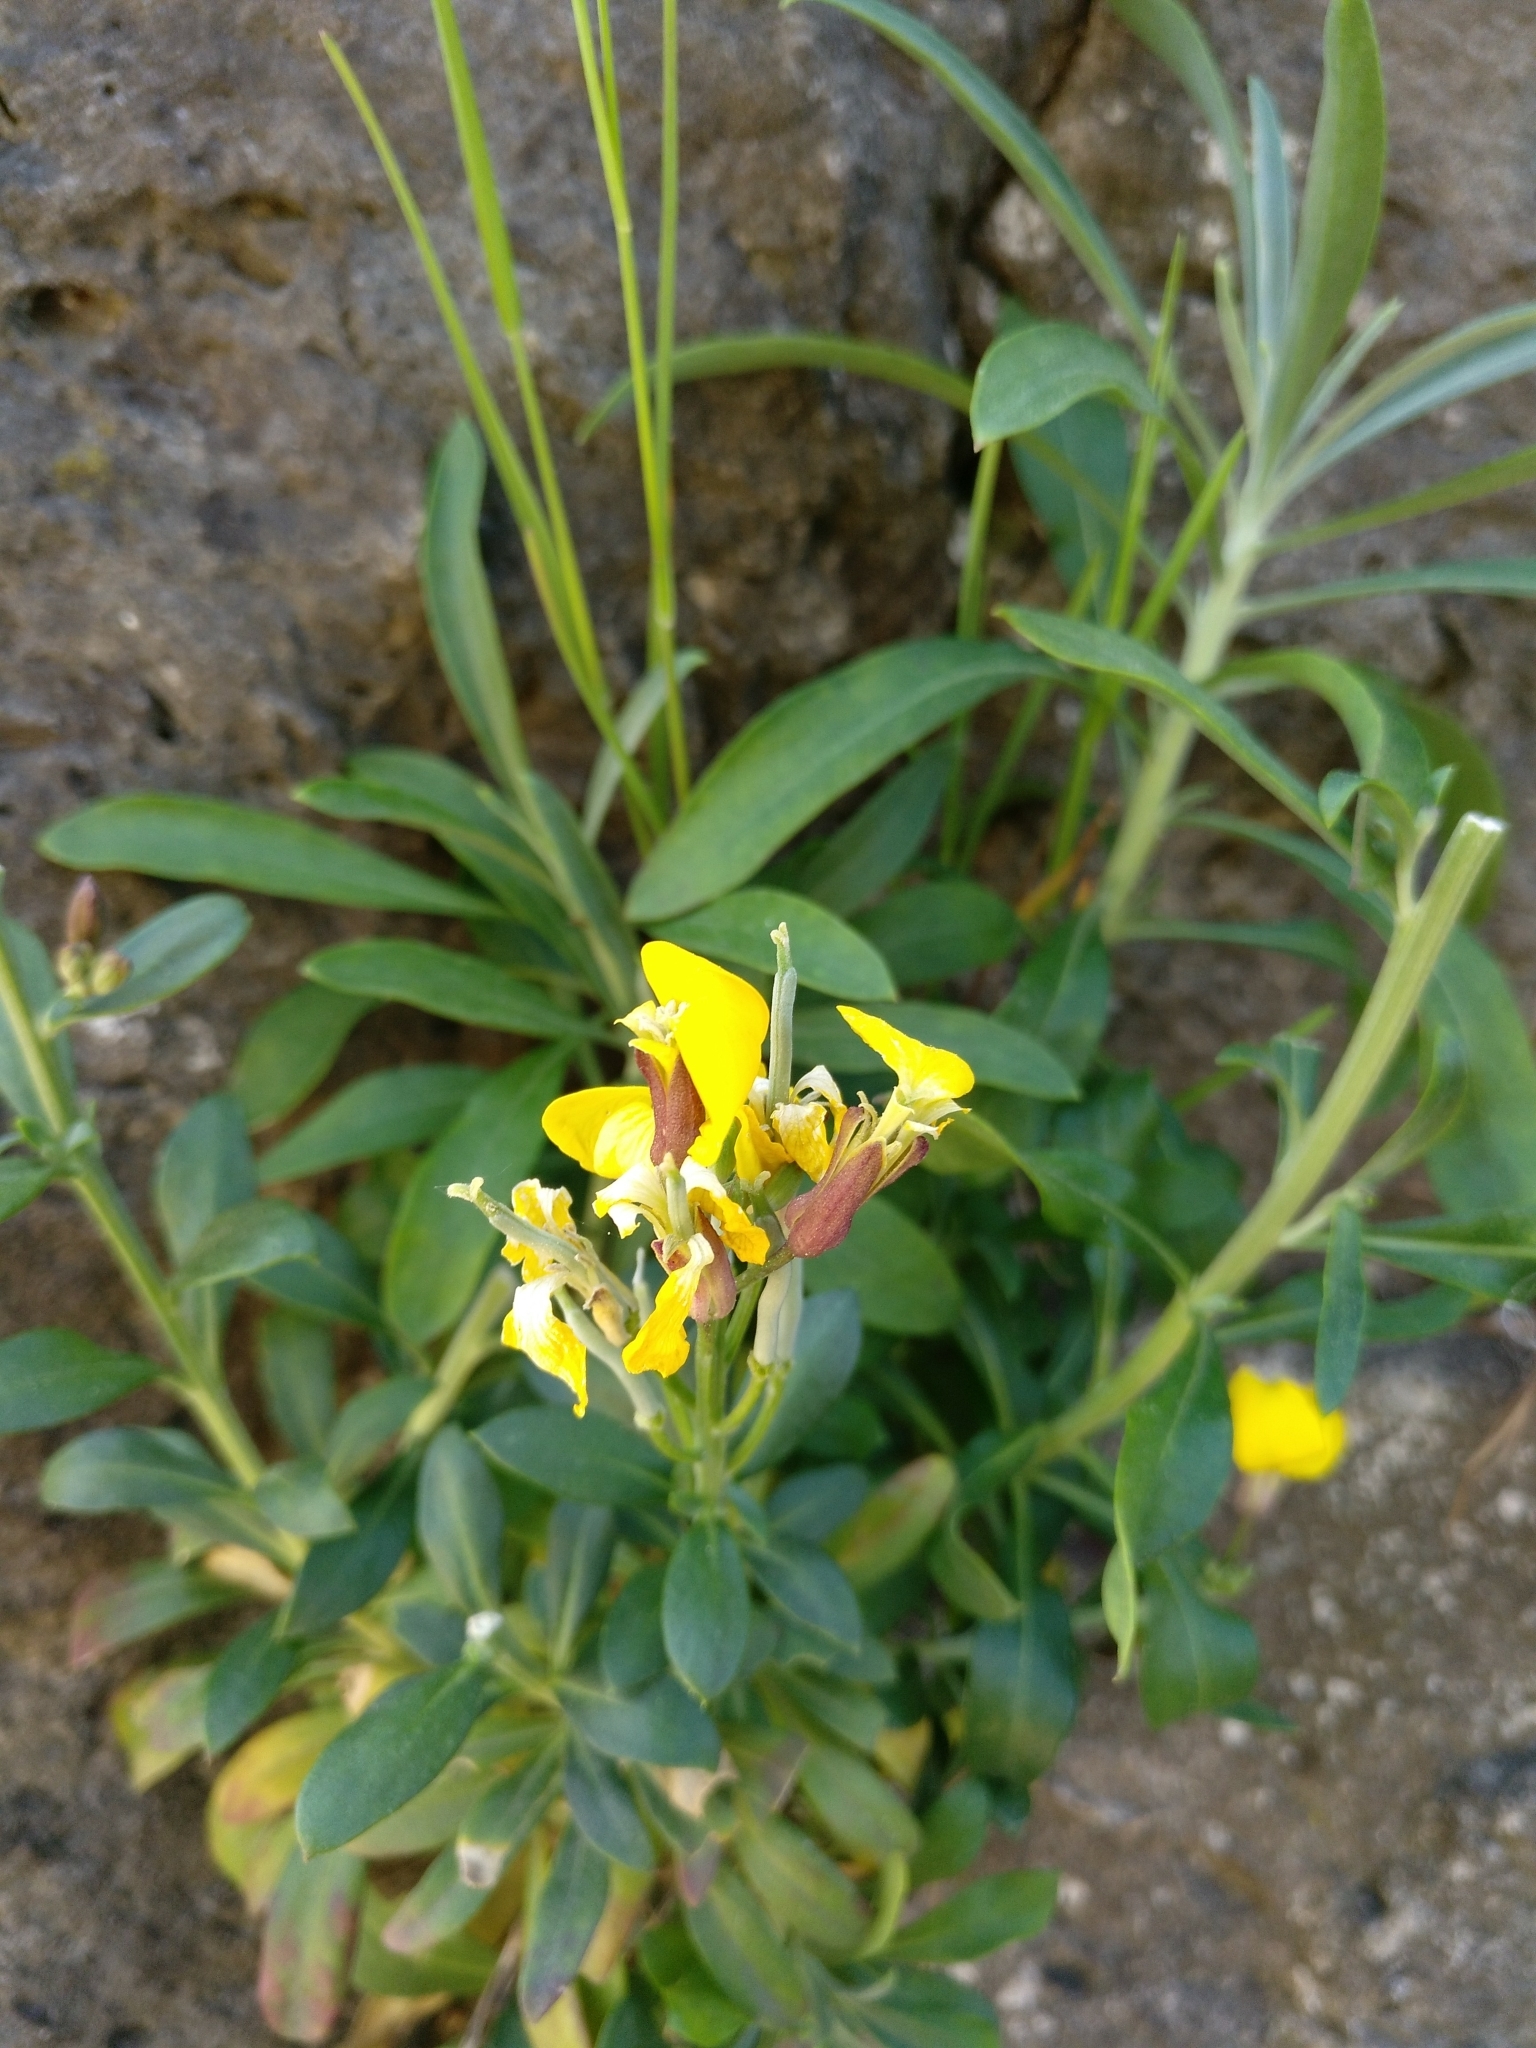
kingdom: Plantae
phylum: Tracheophyta
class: Magnoliopsida
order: Brassicales
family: Brassicaceae
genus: Erysimum
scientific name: Erysimum cheiri
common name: Wallflower
